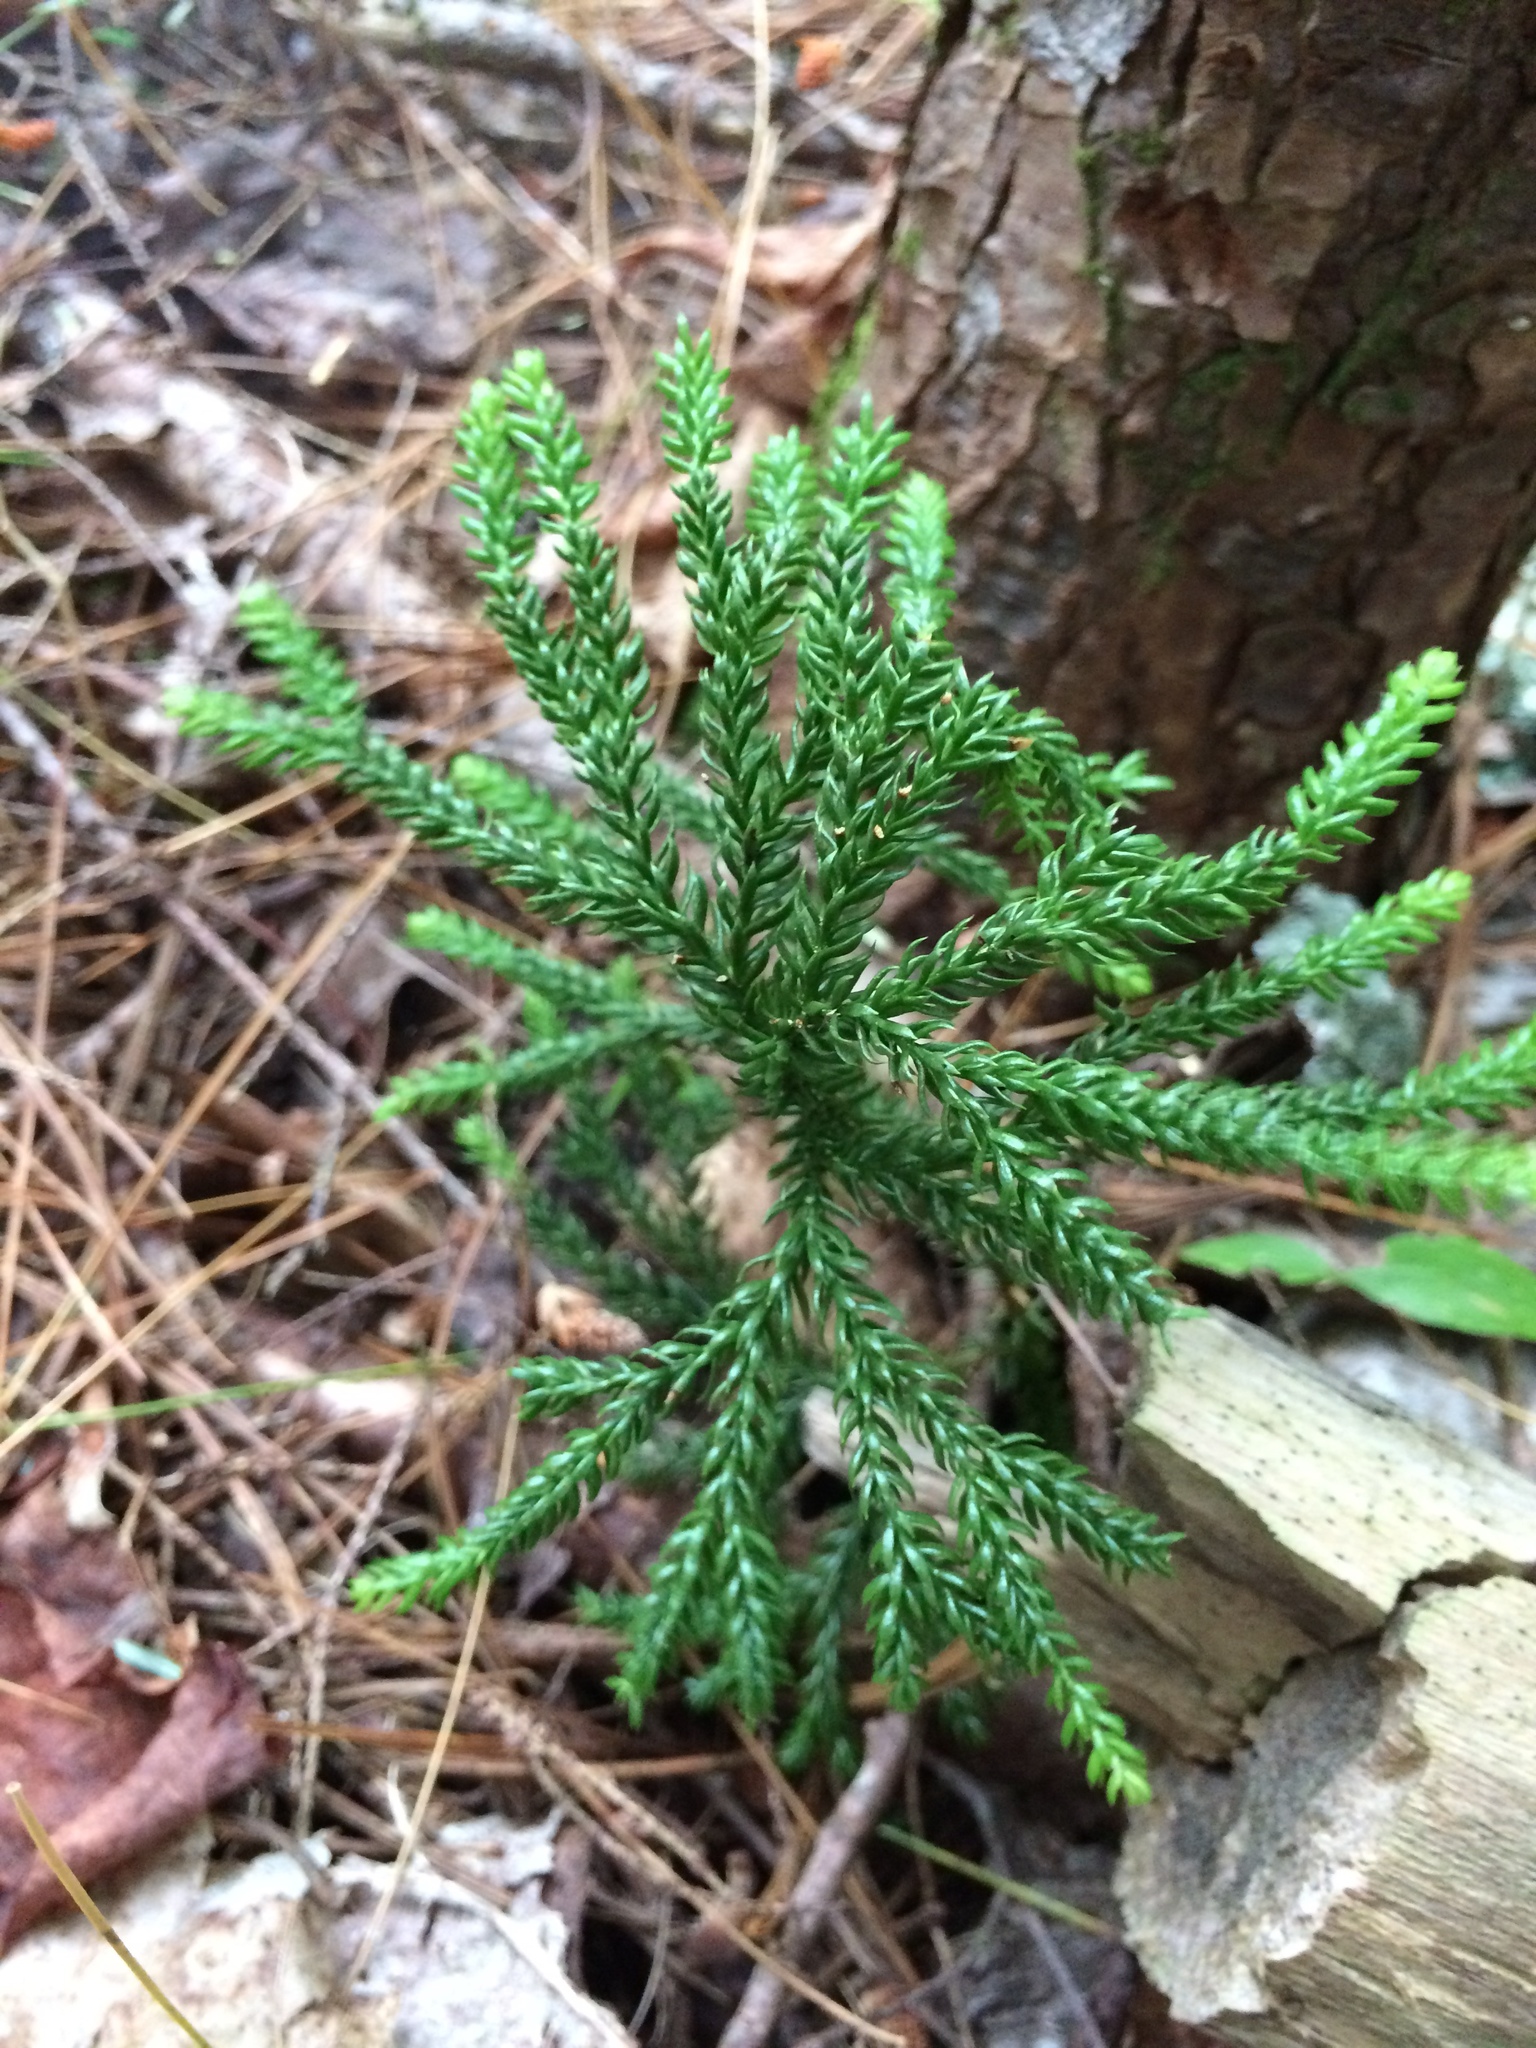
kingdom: Plantae
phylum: Tracheophyta
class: Lycopodiopsida
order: Lycopodiales
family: Lycopodiaceae
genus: Dendrolycopodium
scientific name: Dendrolycopodium obscurum
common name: Common ground-pine
